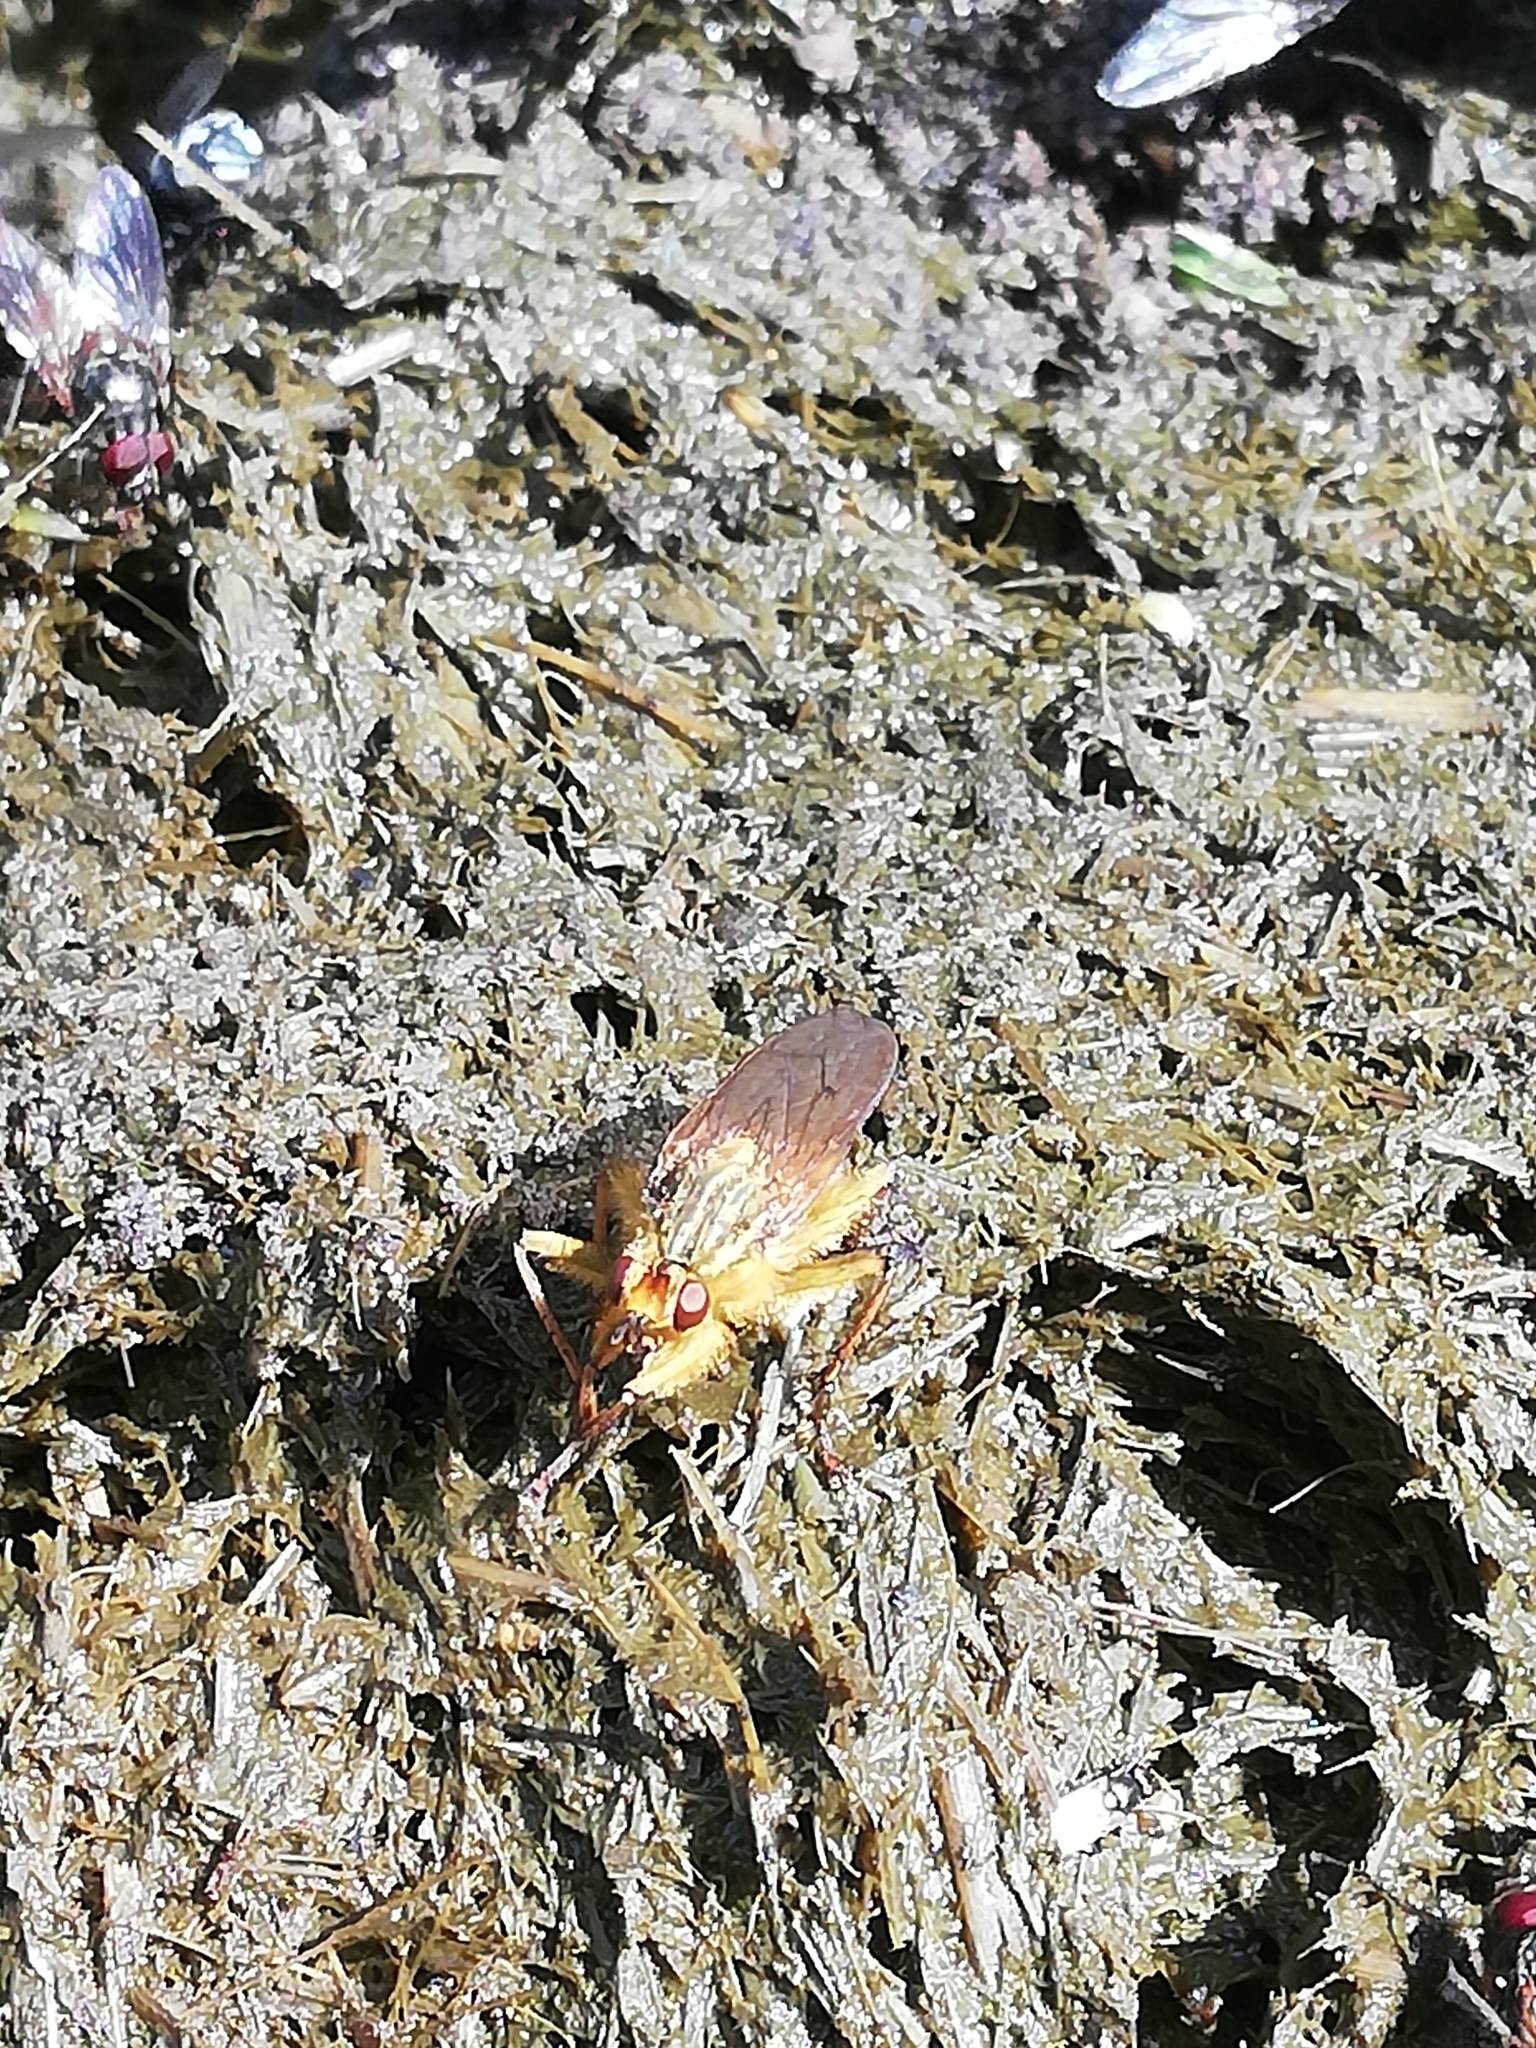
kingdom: Animalia
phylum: Arthropoda
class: Insecta
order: Diptera
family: Scathophagidae
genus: Scathophaga
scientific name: Scathophaga stercoraria
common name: Yellow dung fly
